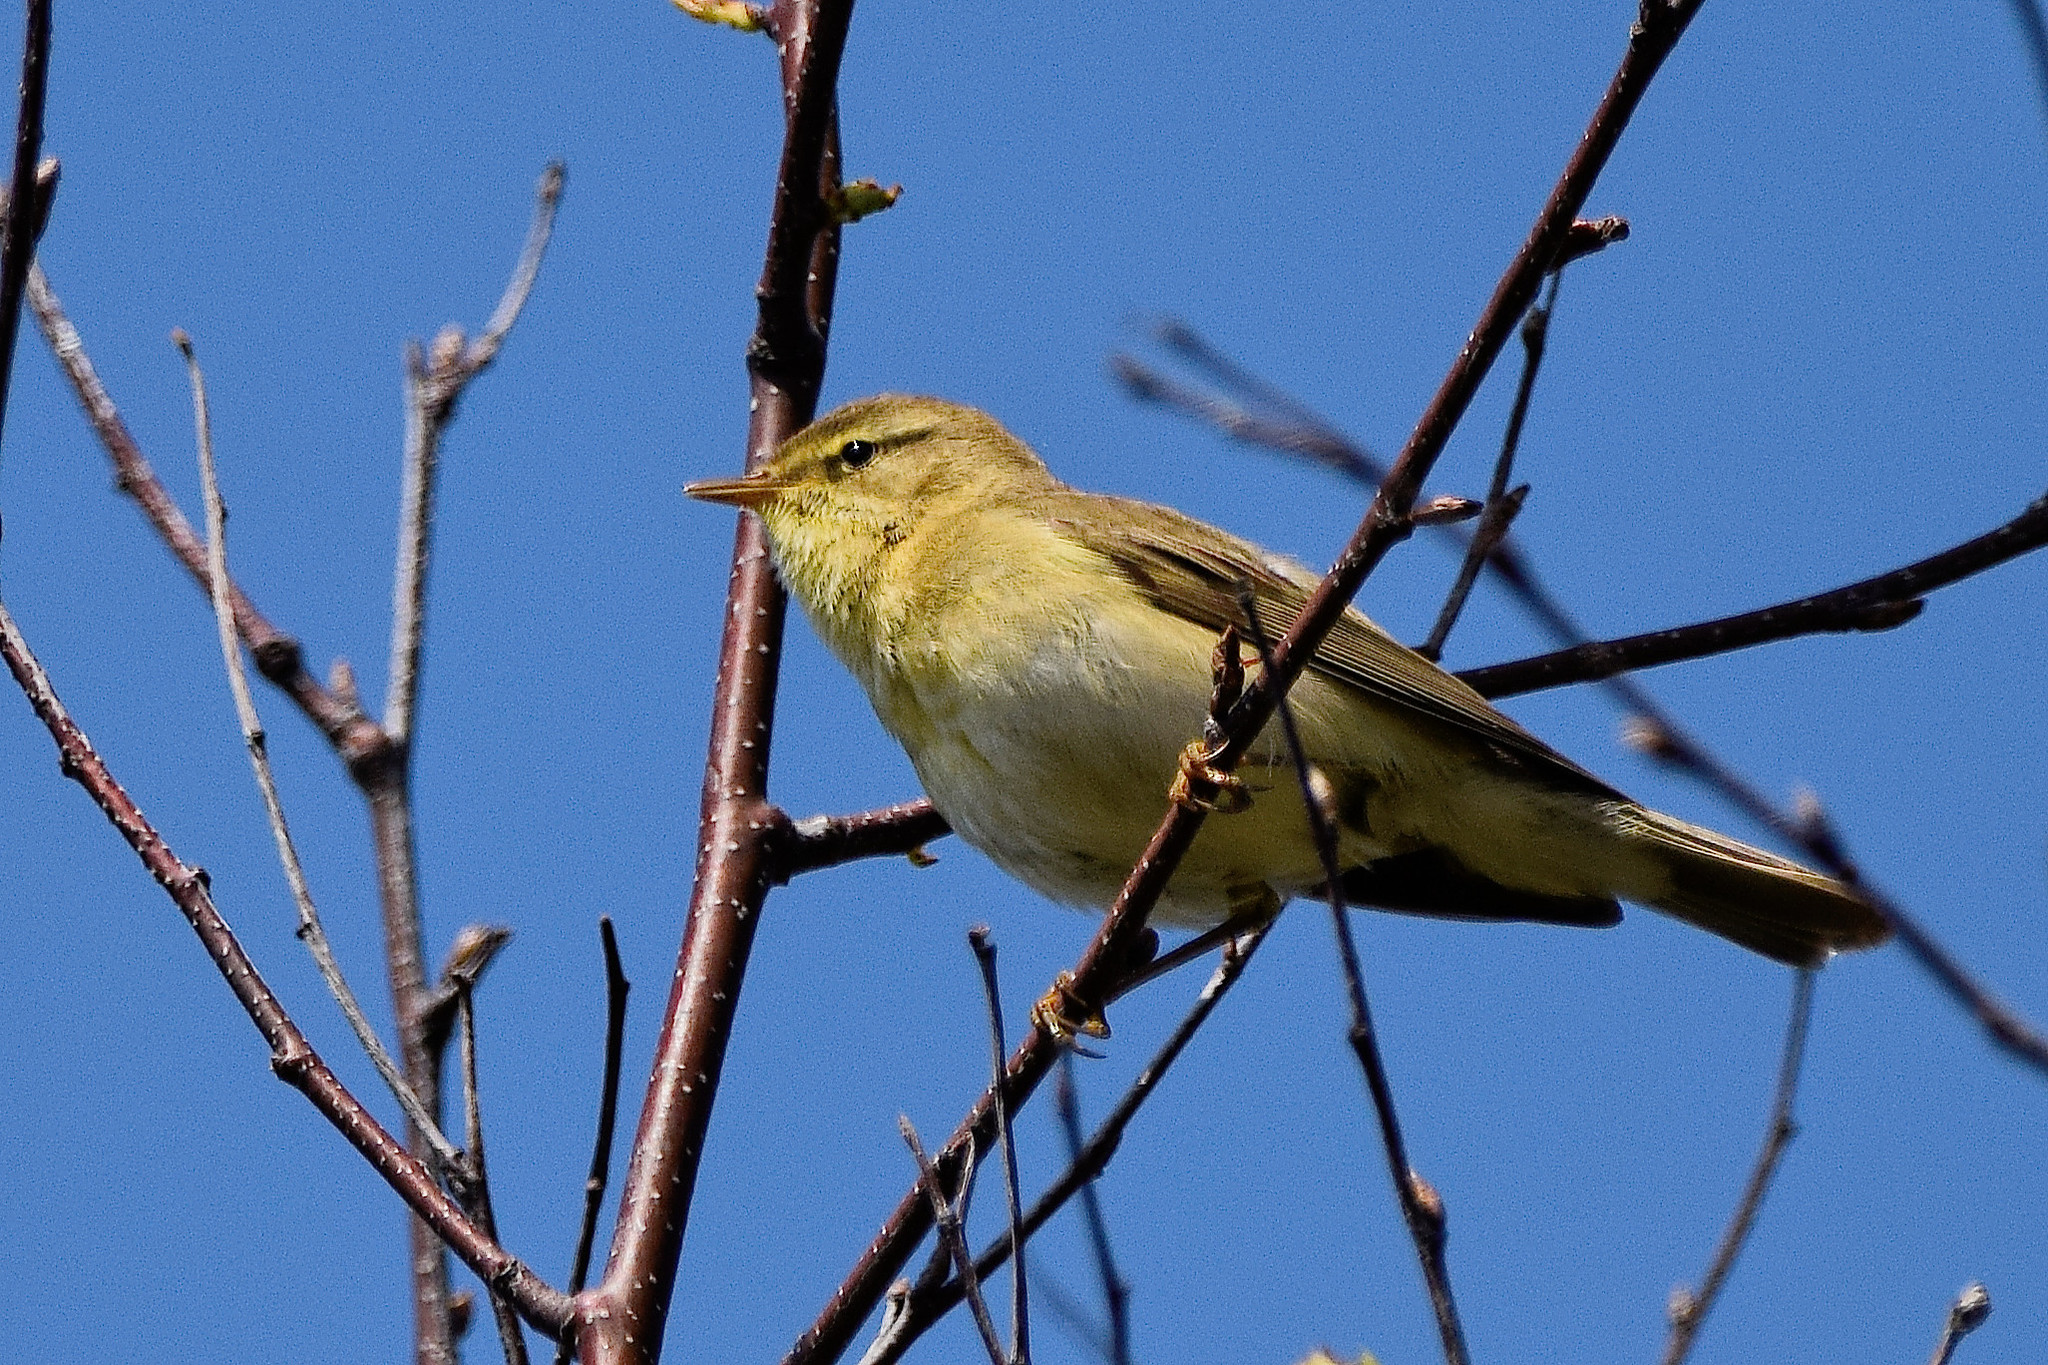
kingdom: Animalia
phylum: Chordata
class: Aves
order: Passeriformes
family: Phylloscopidae
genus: Phylloscopus
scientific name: Phylloscopus trochilus
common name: Willow warbler
